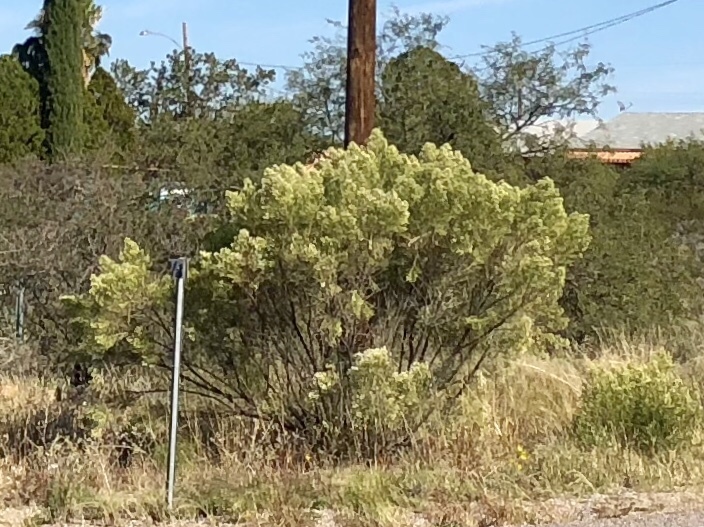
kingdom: Plantae
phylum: Tracheophyta
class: Magnoliopsida
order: Asterales
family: Asteraceae
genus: Baccharis
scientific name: Baccharis sarothroides
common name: Desert-broom
